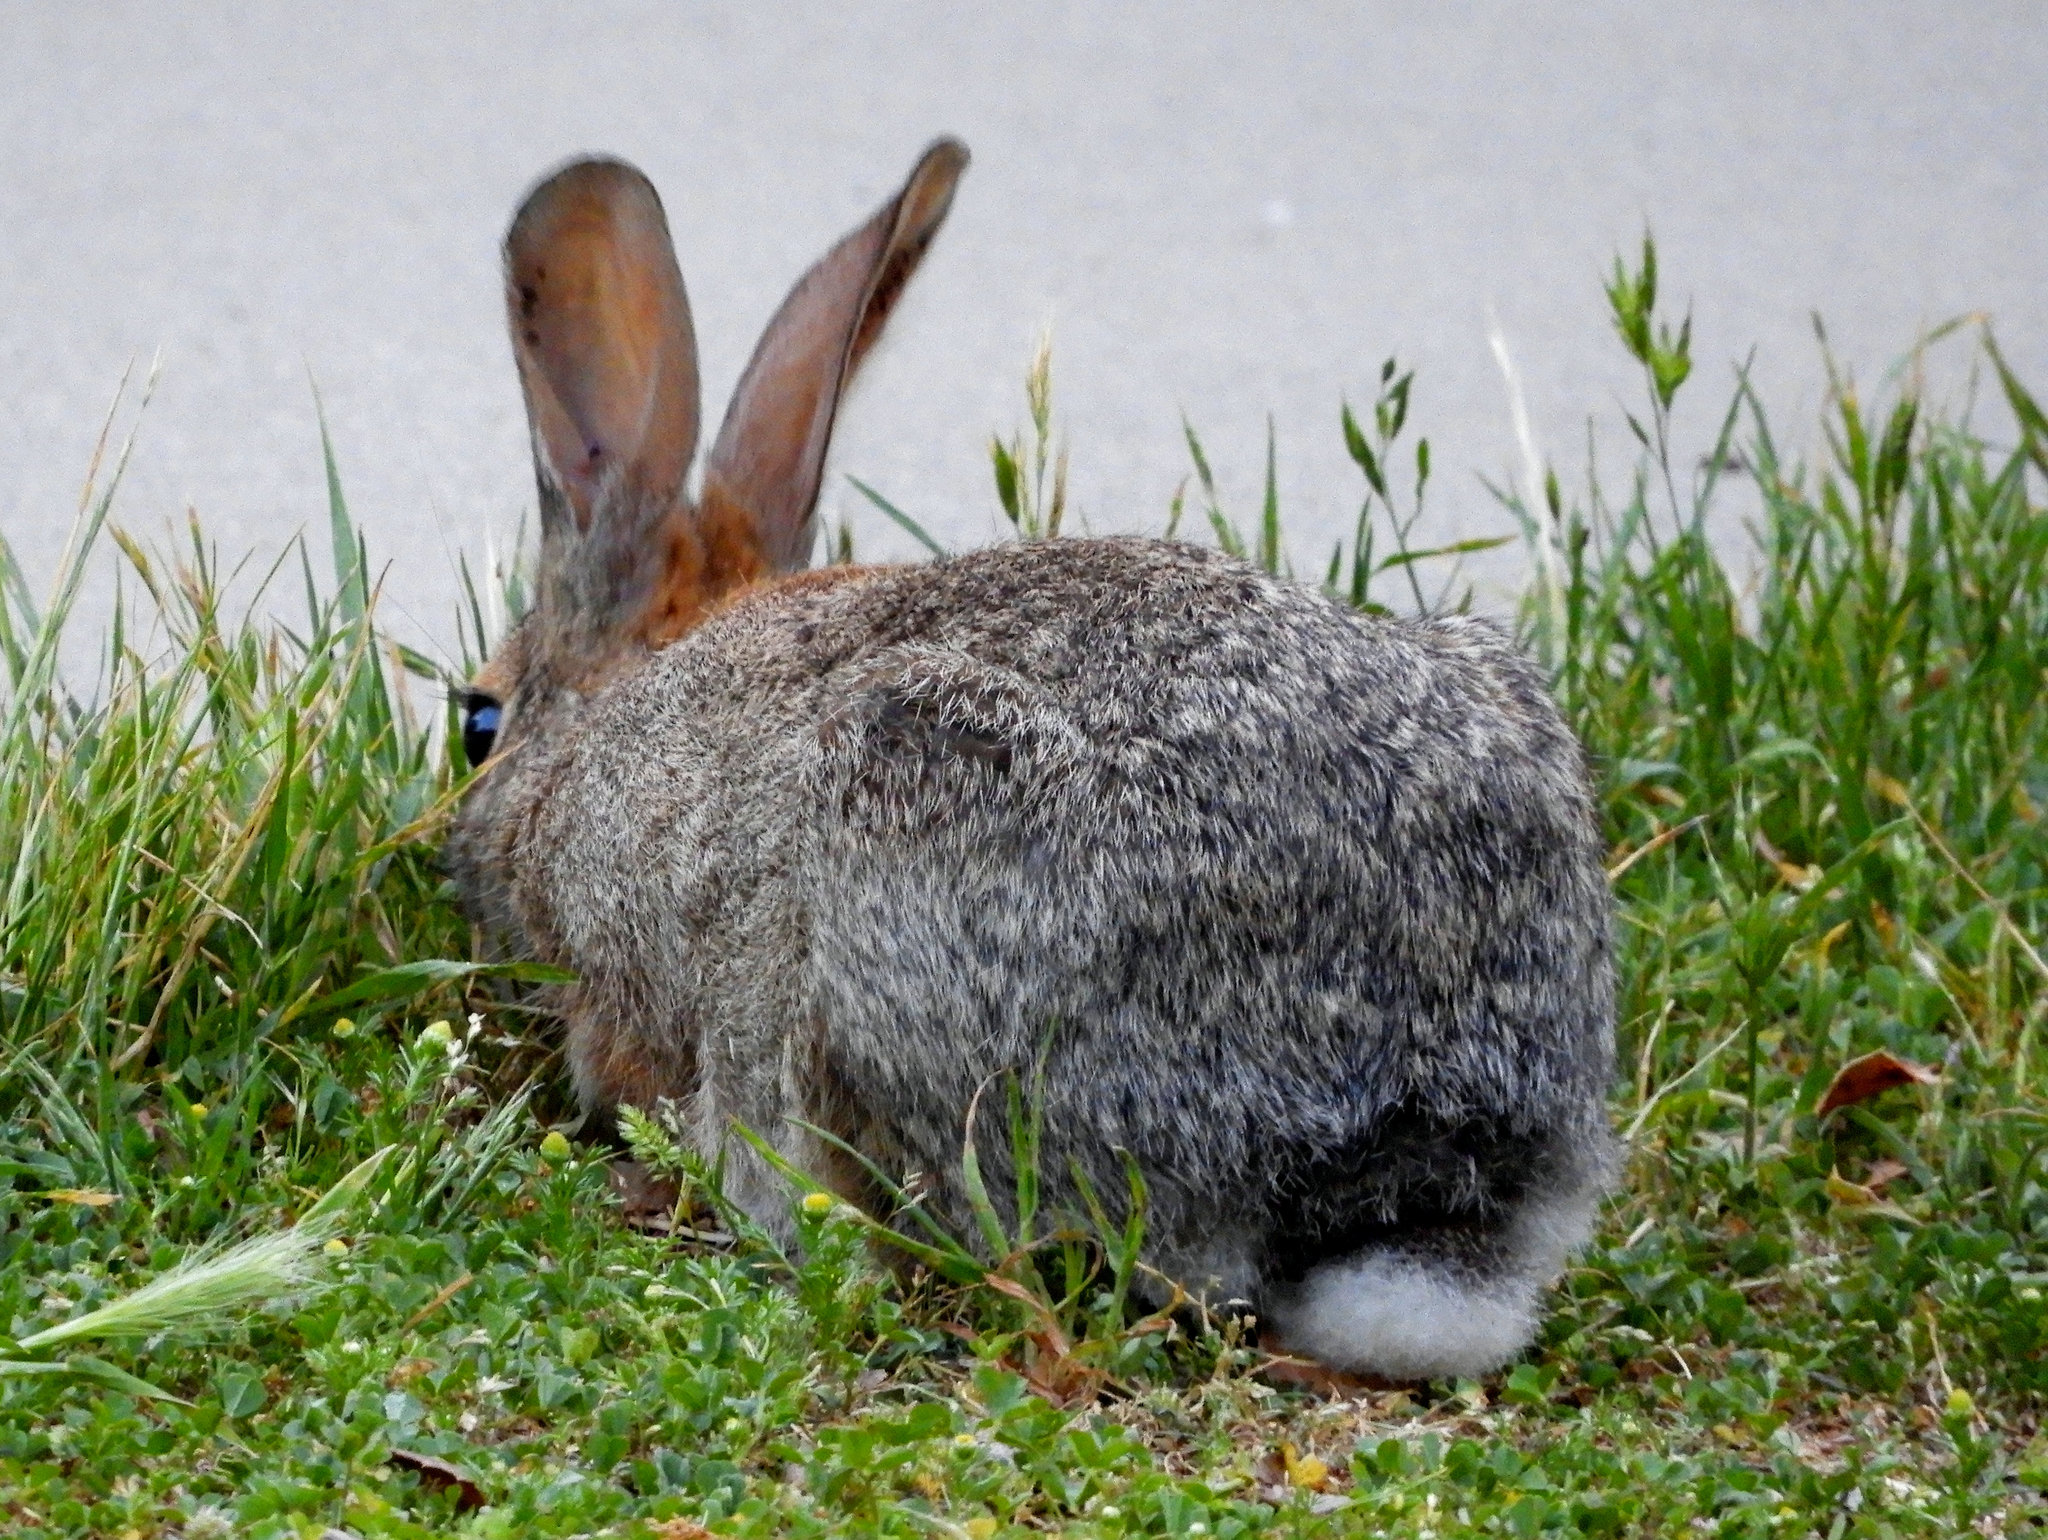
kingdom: Animalia
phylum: Chordata
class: Mammalia
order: Lagomorpha
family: Leporidae
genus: Sylvilagus
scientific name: Sylvilagus audubonii
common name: Desert cottontail
